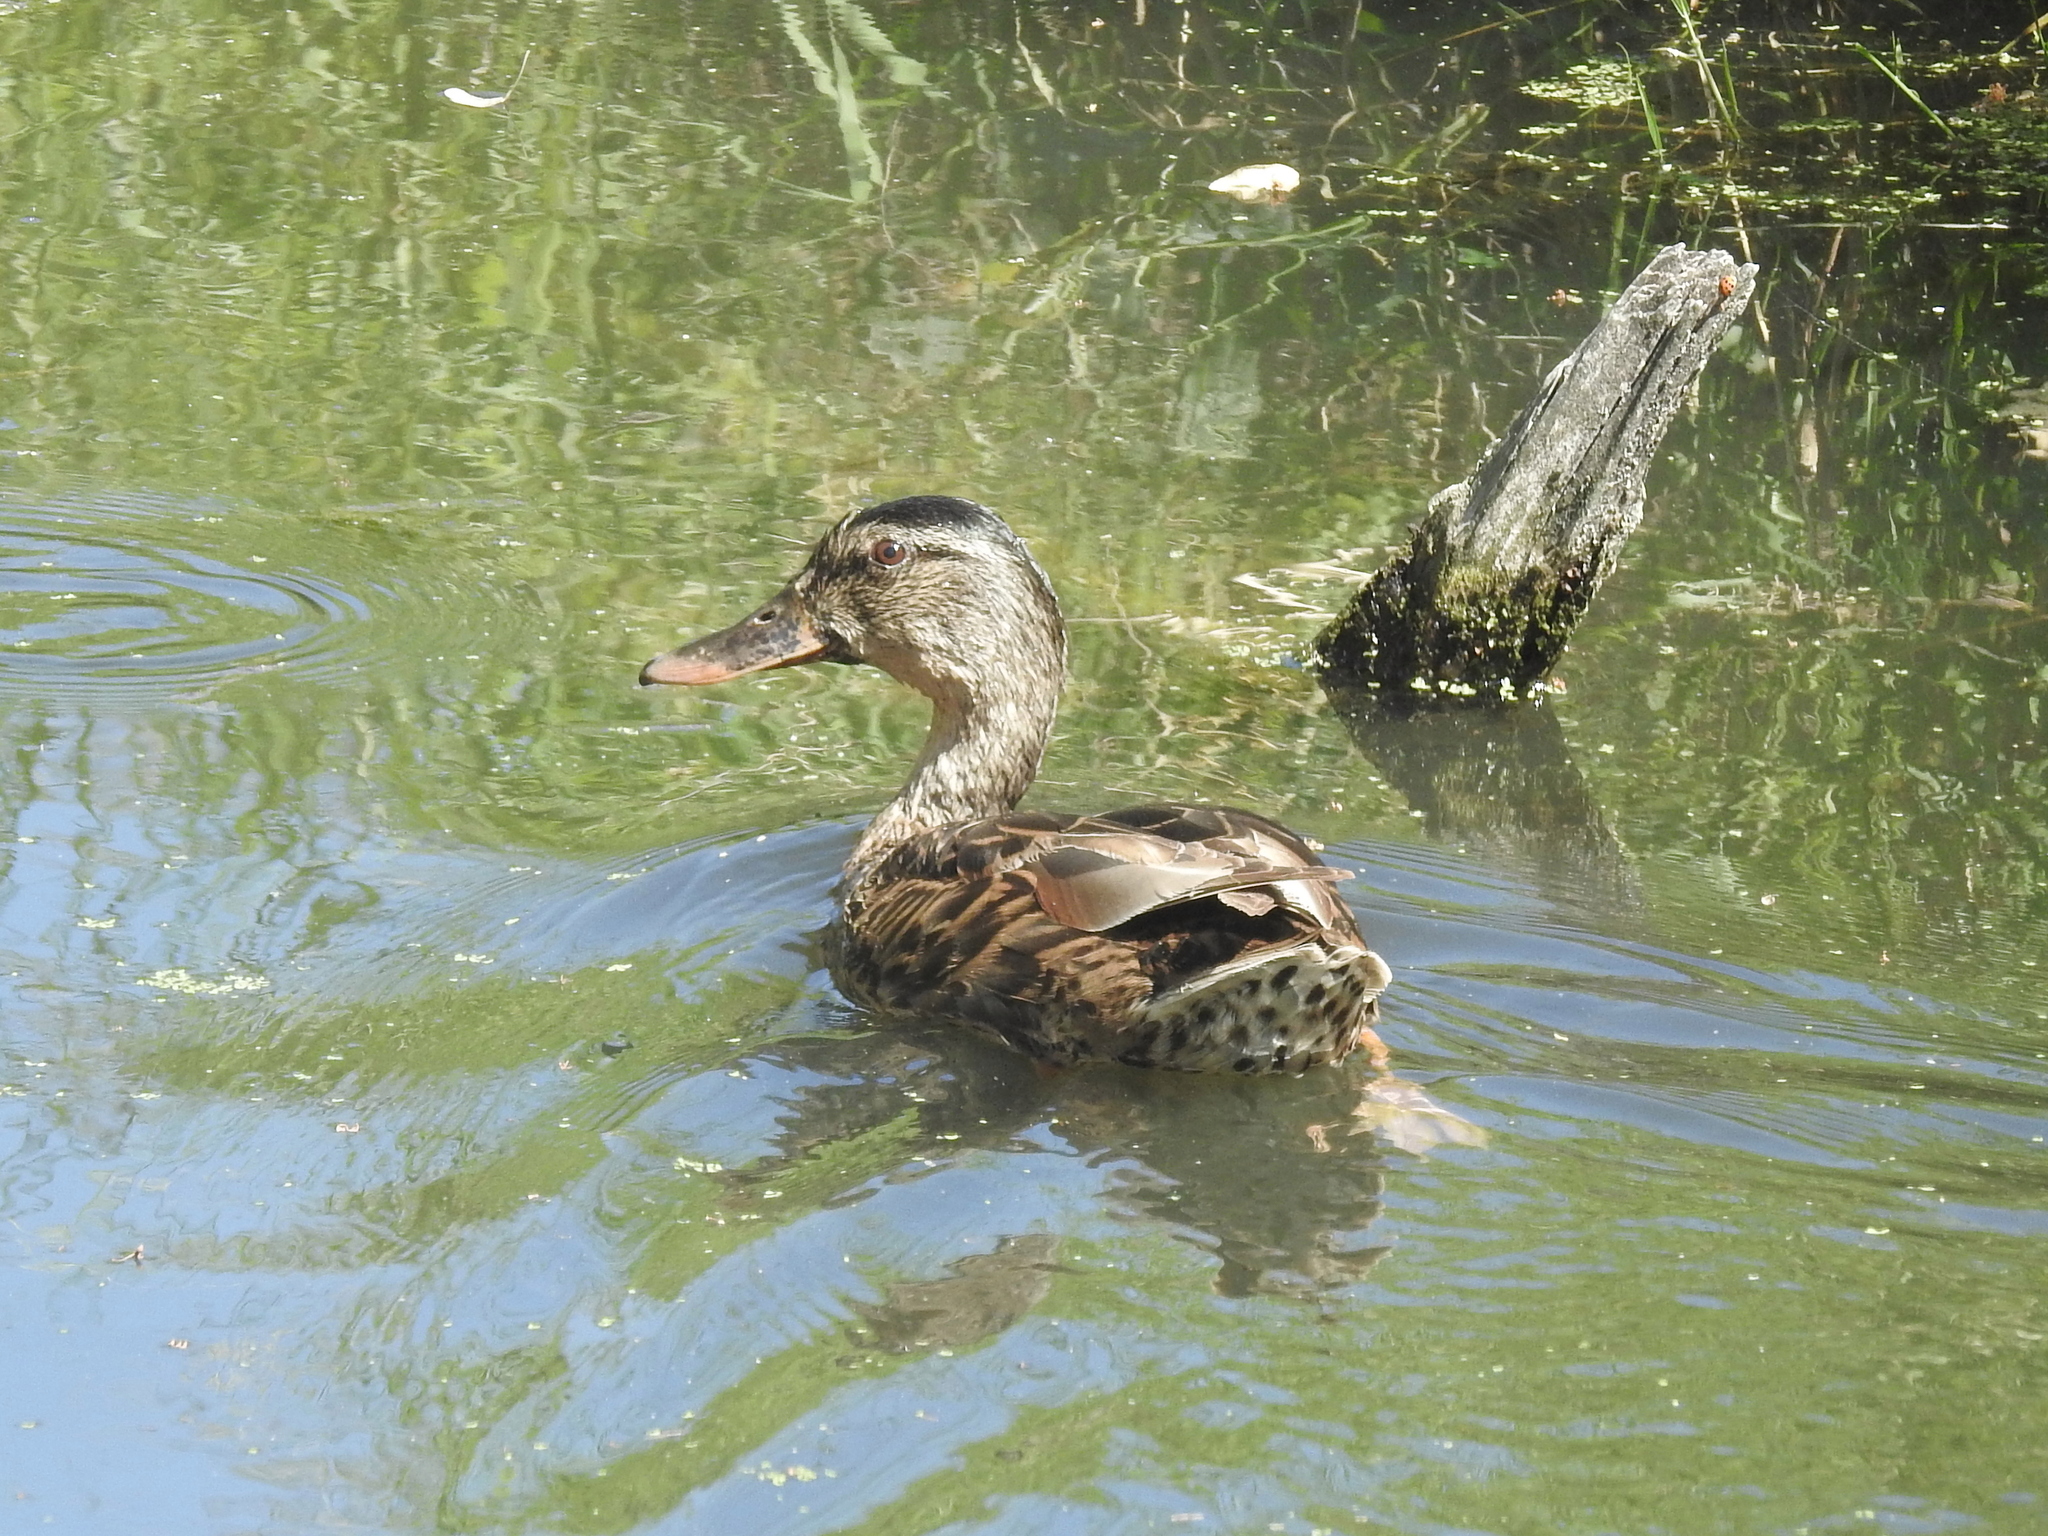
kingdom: Animalia
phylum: Chordata
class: Aves
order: Anseriformes
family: Anatidae
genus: Anas
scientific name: Anas platyrhynchos
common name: Mallard
